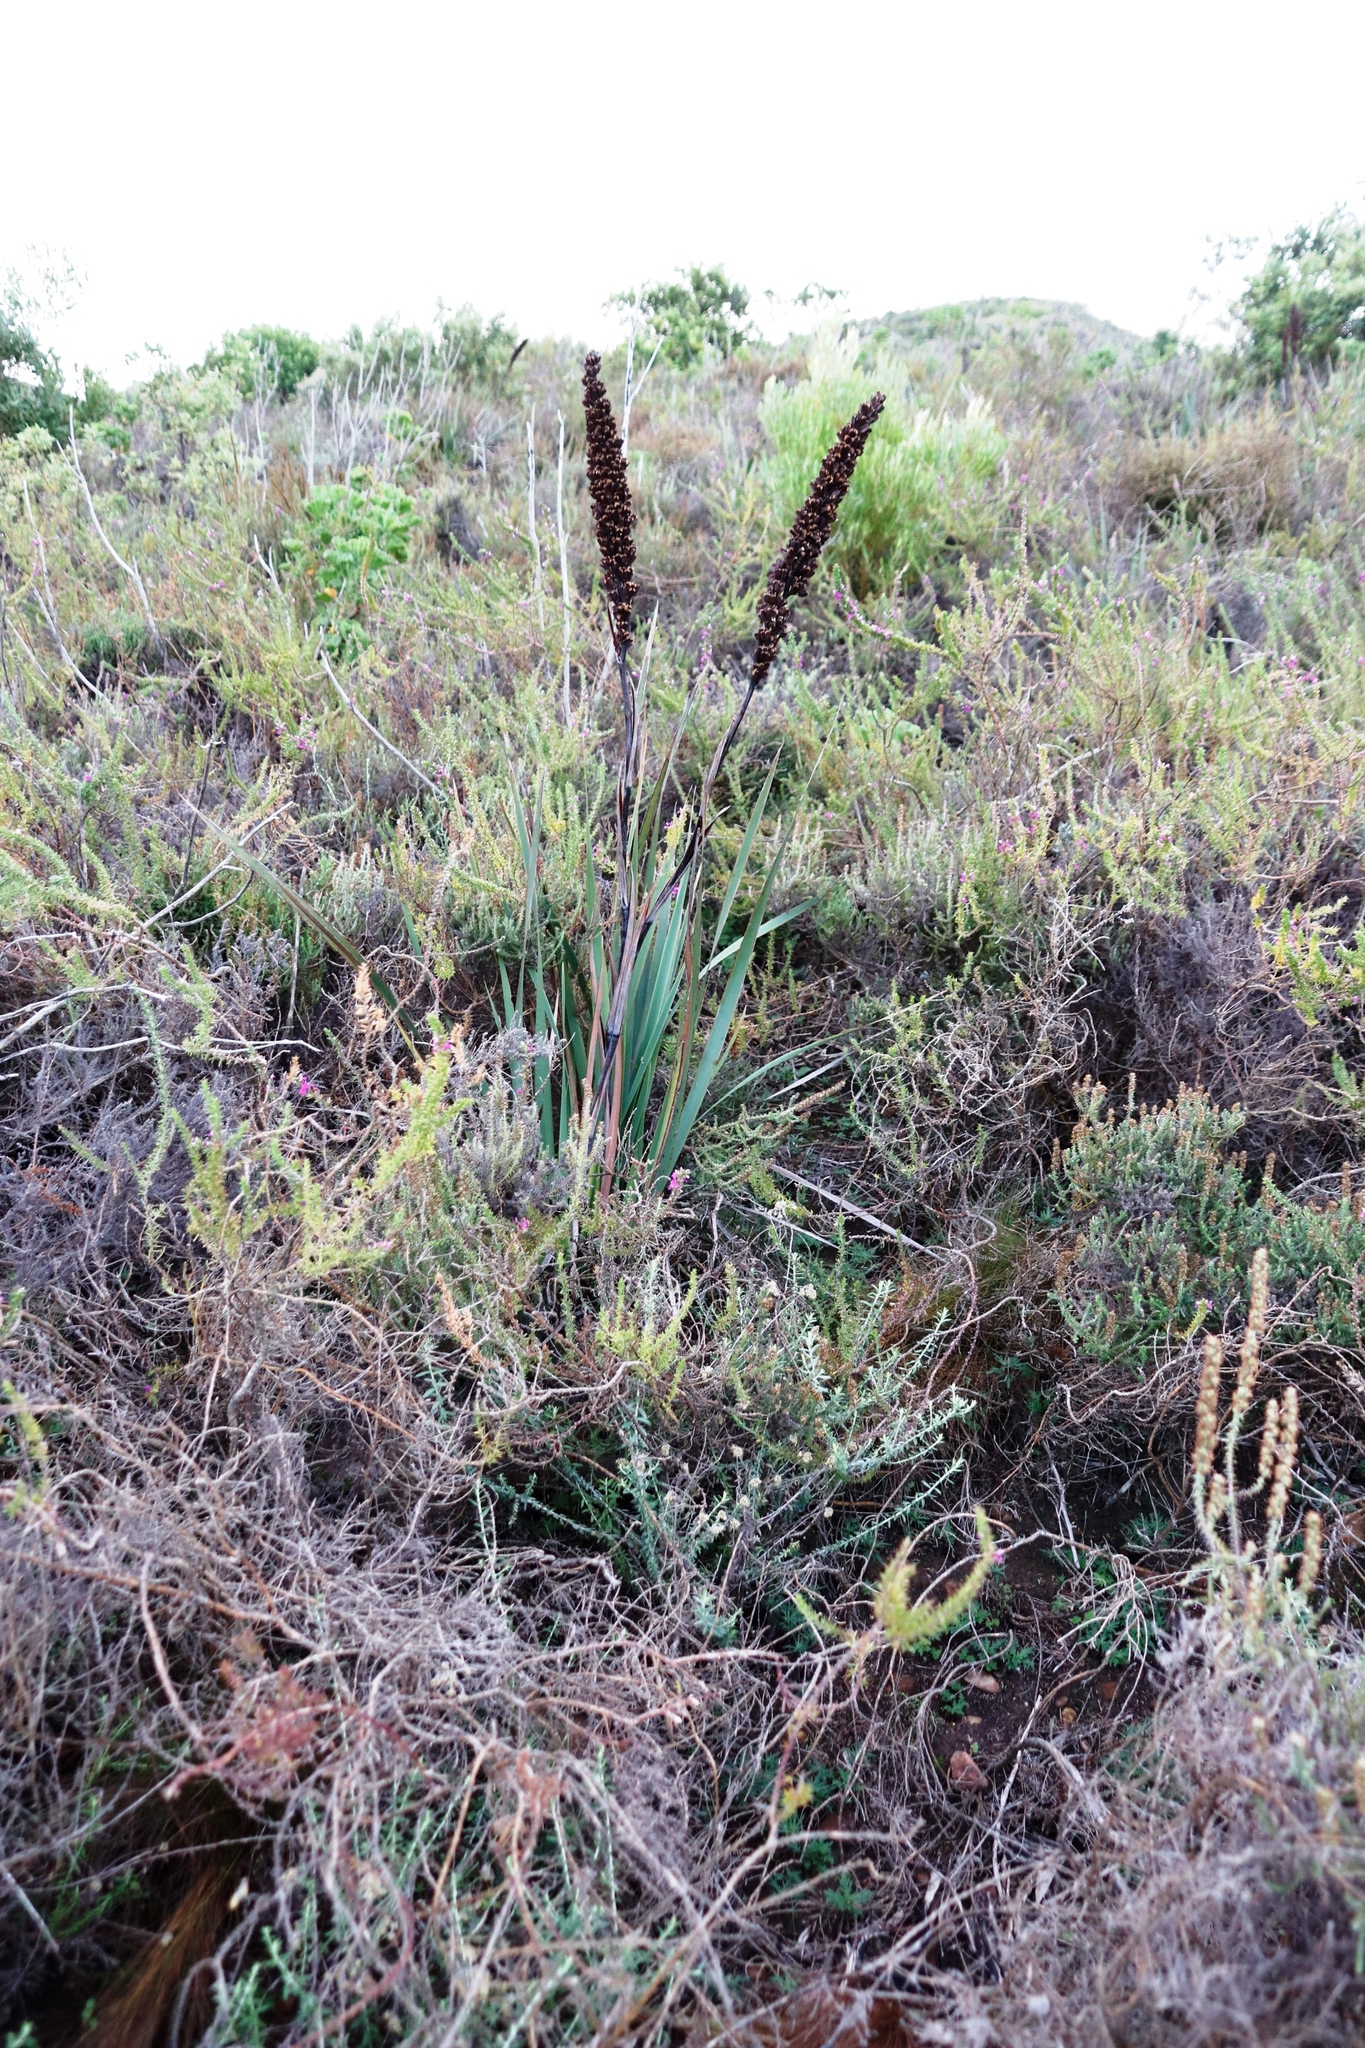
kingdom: Plantae
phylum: Tracheophyta
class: Liliopsida
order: Asparagales
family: Iridaceae
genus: Aristea
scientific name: Aristea capitata
